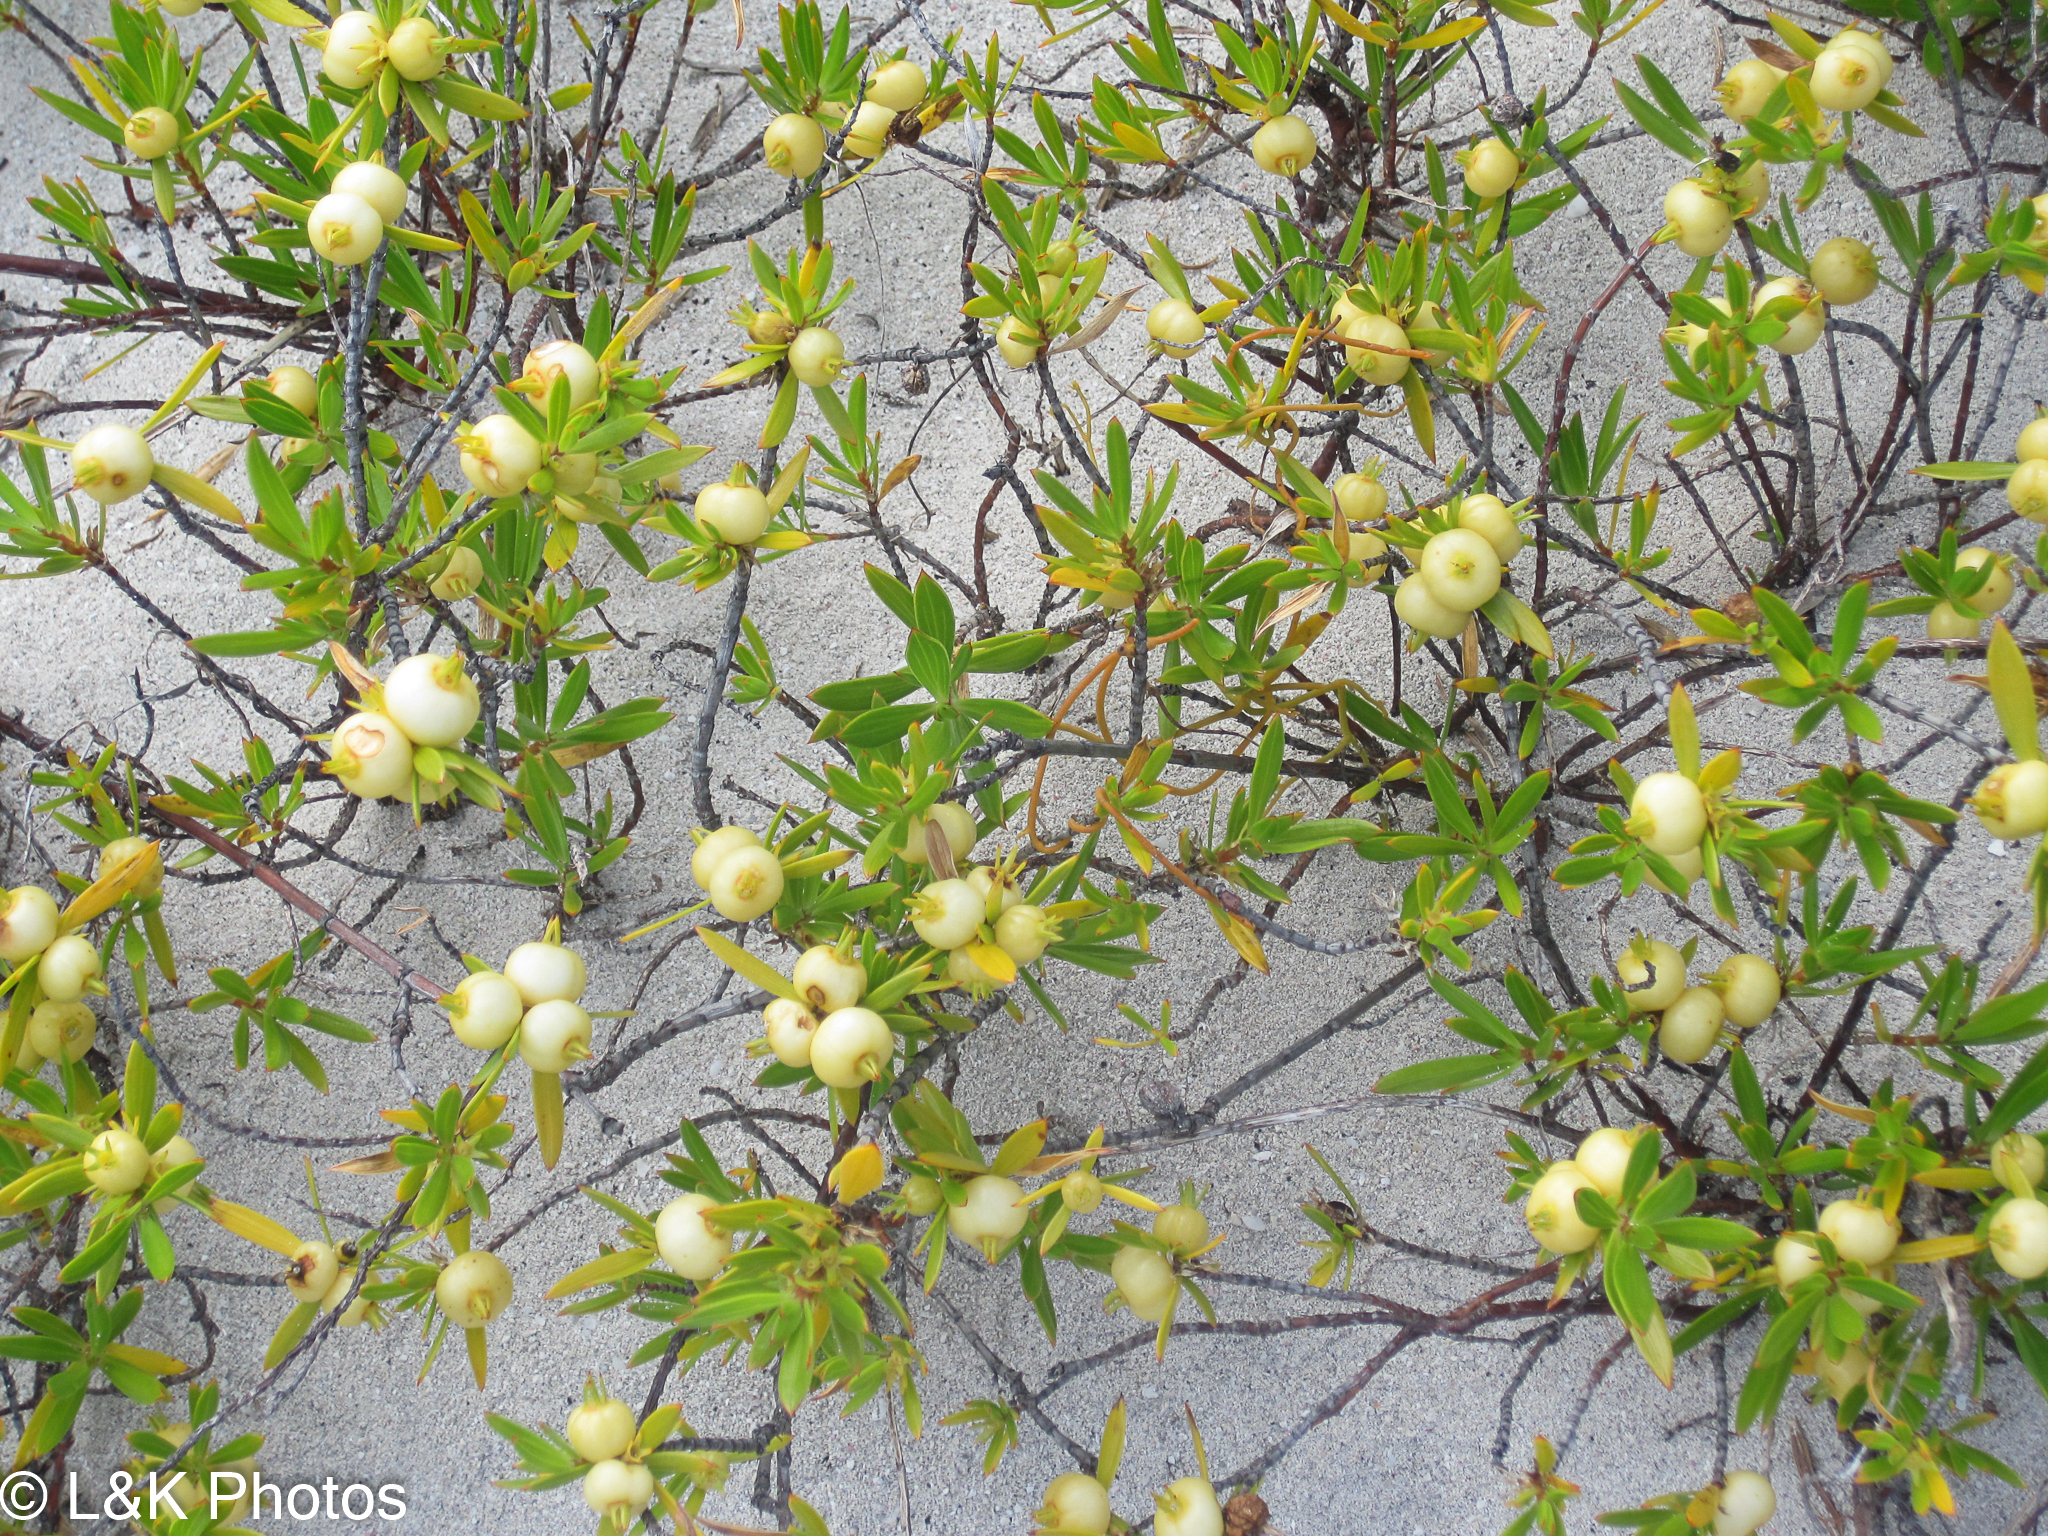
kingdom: Plantae
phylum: Tracheophyta
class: Magnoliopsida
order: Gentianales
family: Rubiaceae
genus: Ernodea
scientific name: Ernodea littoralis
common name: Beach creeper
